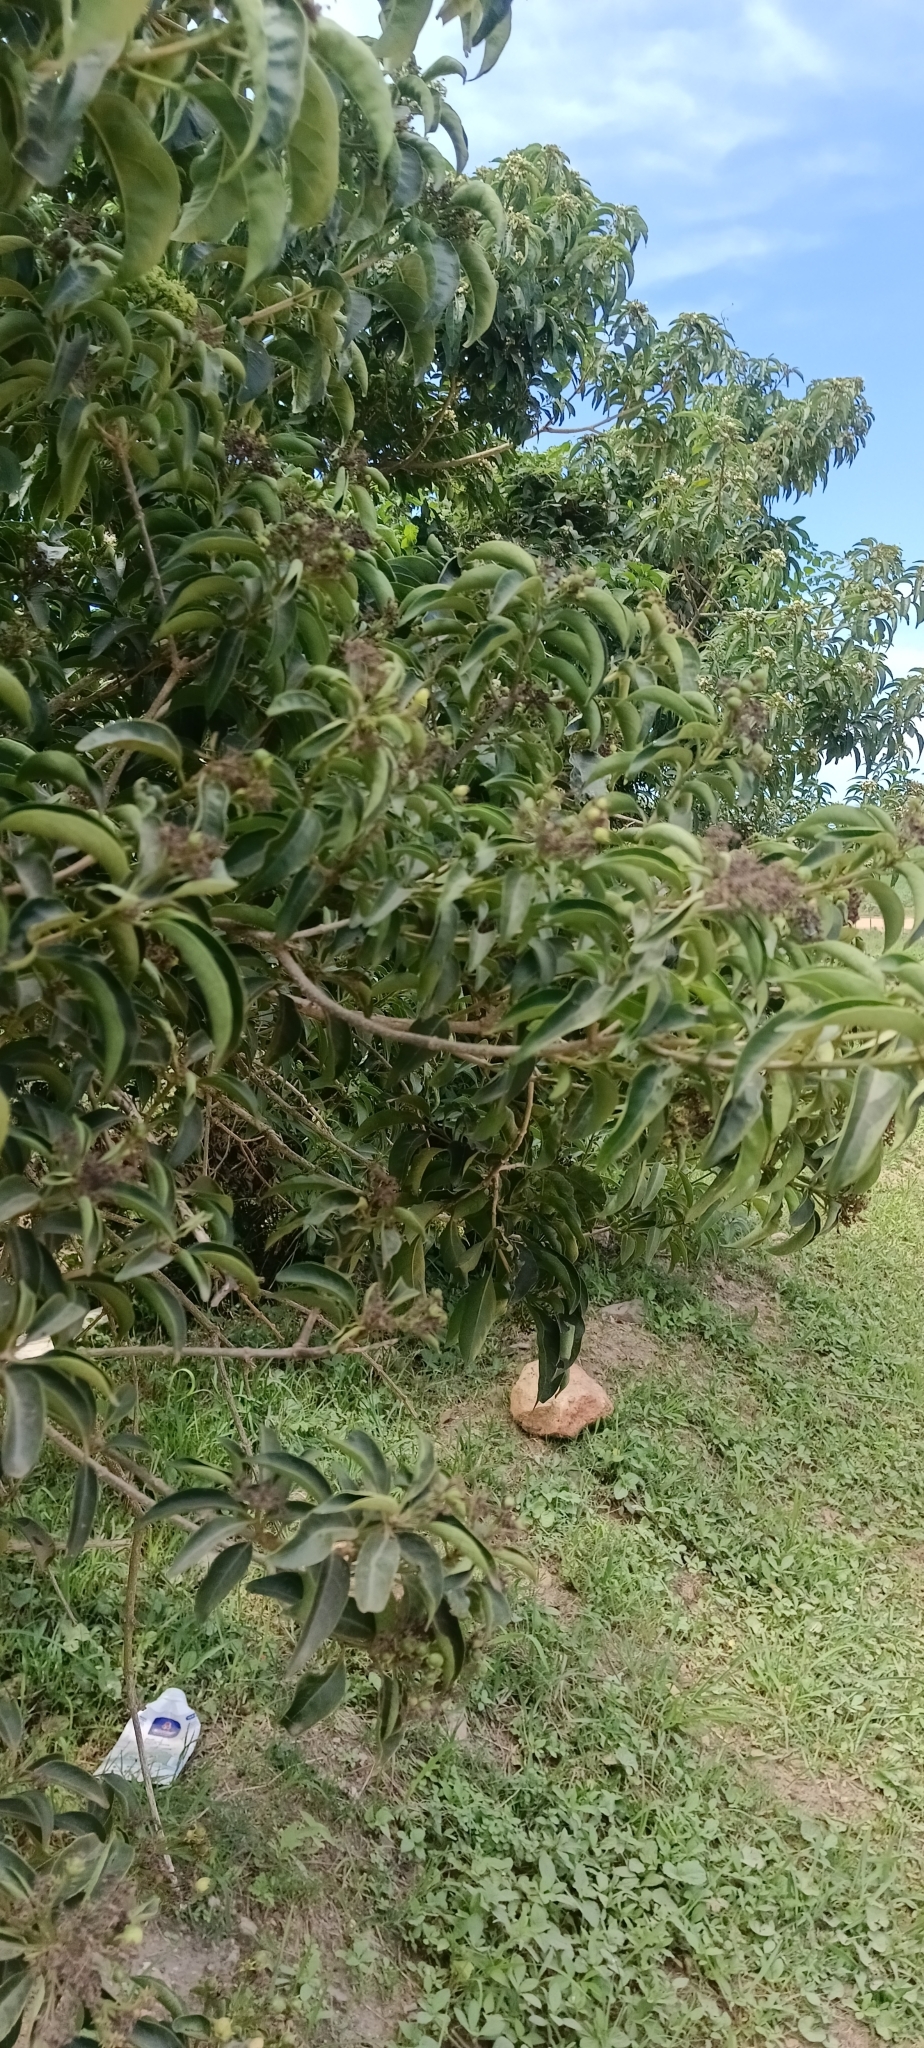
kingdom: Plantae
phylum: Tracheophyta
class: Magnoliopsida
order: Lamiales
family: Lamiaceae
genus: Volkameria
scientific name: Volkameria glabra
